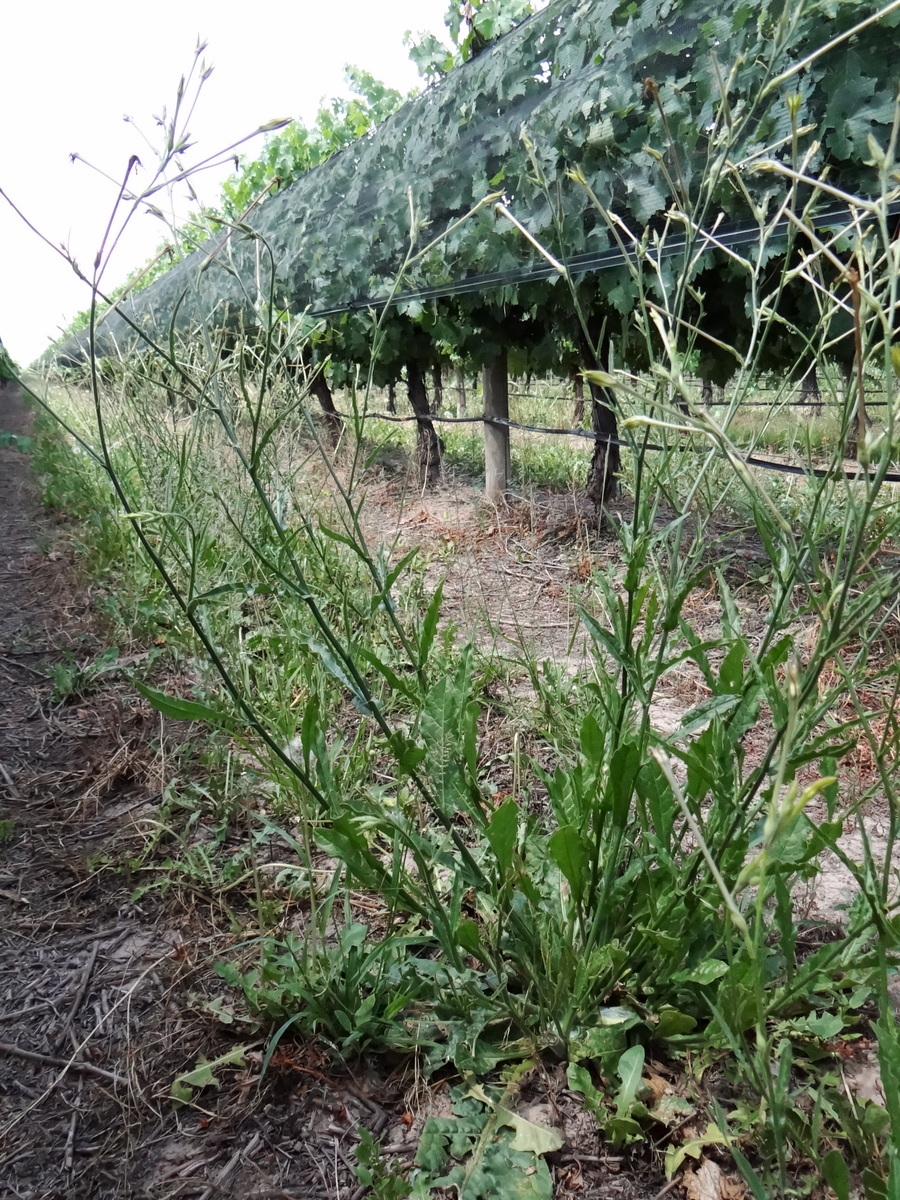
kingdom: Plantae
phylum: Tracheophyta
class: Magnoliopsida
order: Solanales
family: Solanaceae
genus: Nicotiana
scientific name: Nicotiana longiflora
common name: Long-flowered tobacco
